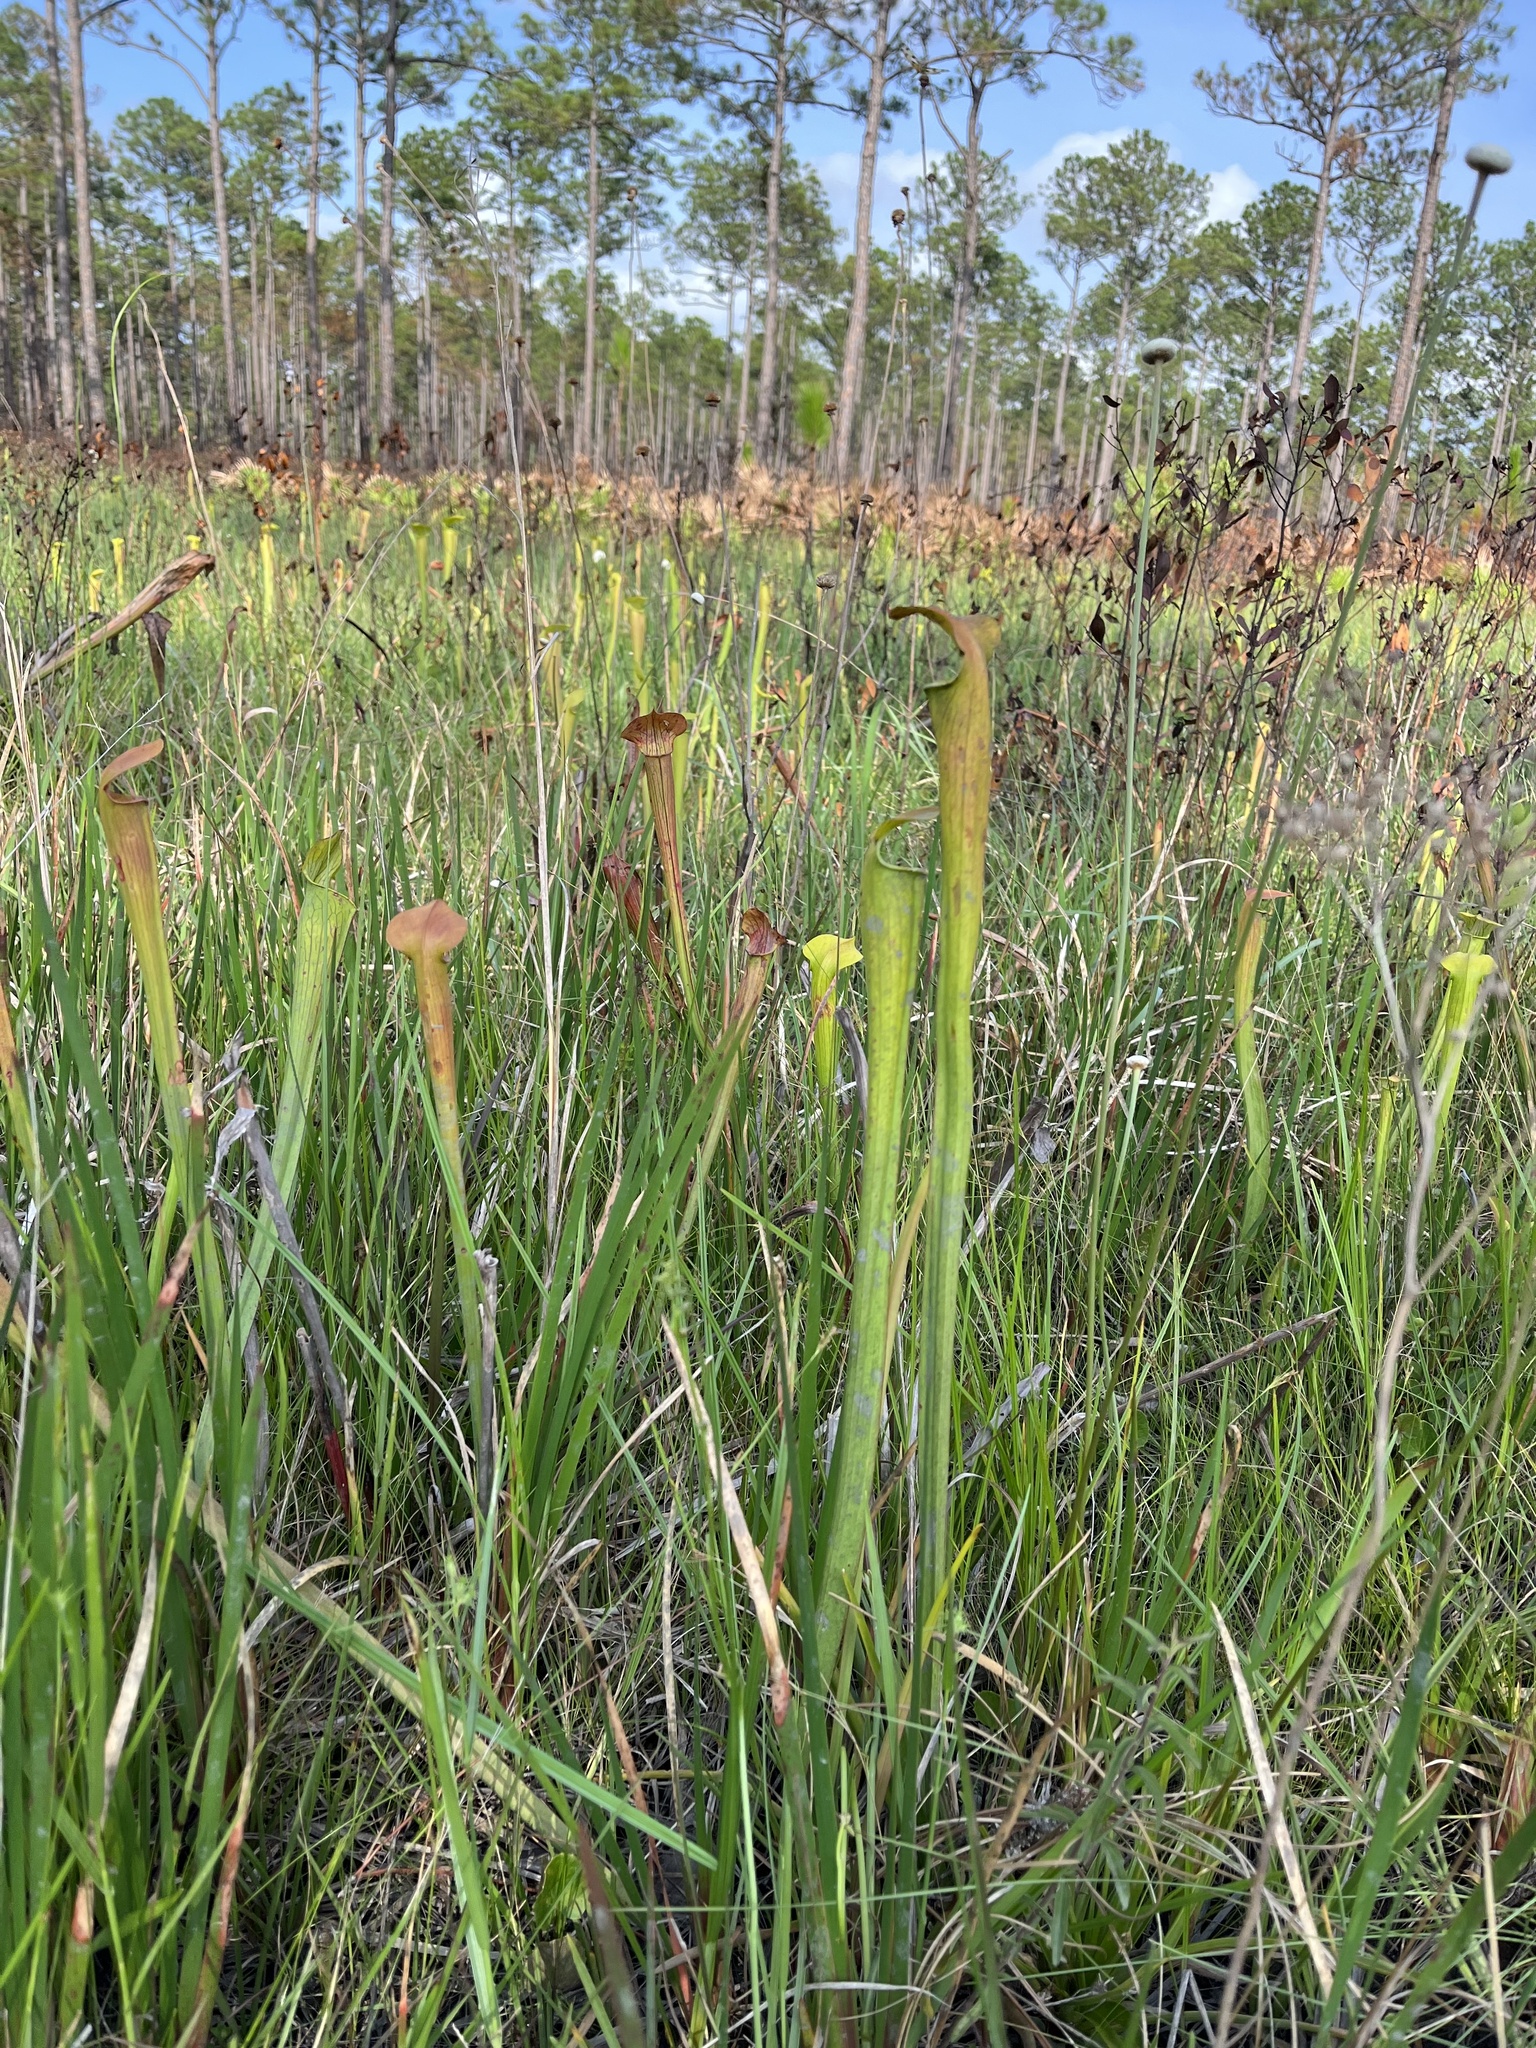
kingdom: Plantae
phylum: Tracheophyta
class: Magnoliopsida
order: Ericales
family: Sarraceniaceae
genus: Sarracenia
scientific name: Sarracenia alata
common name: Yellow trumpets
